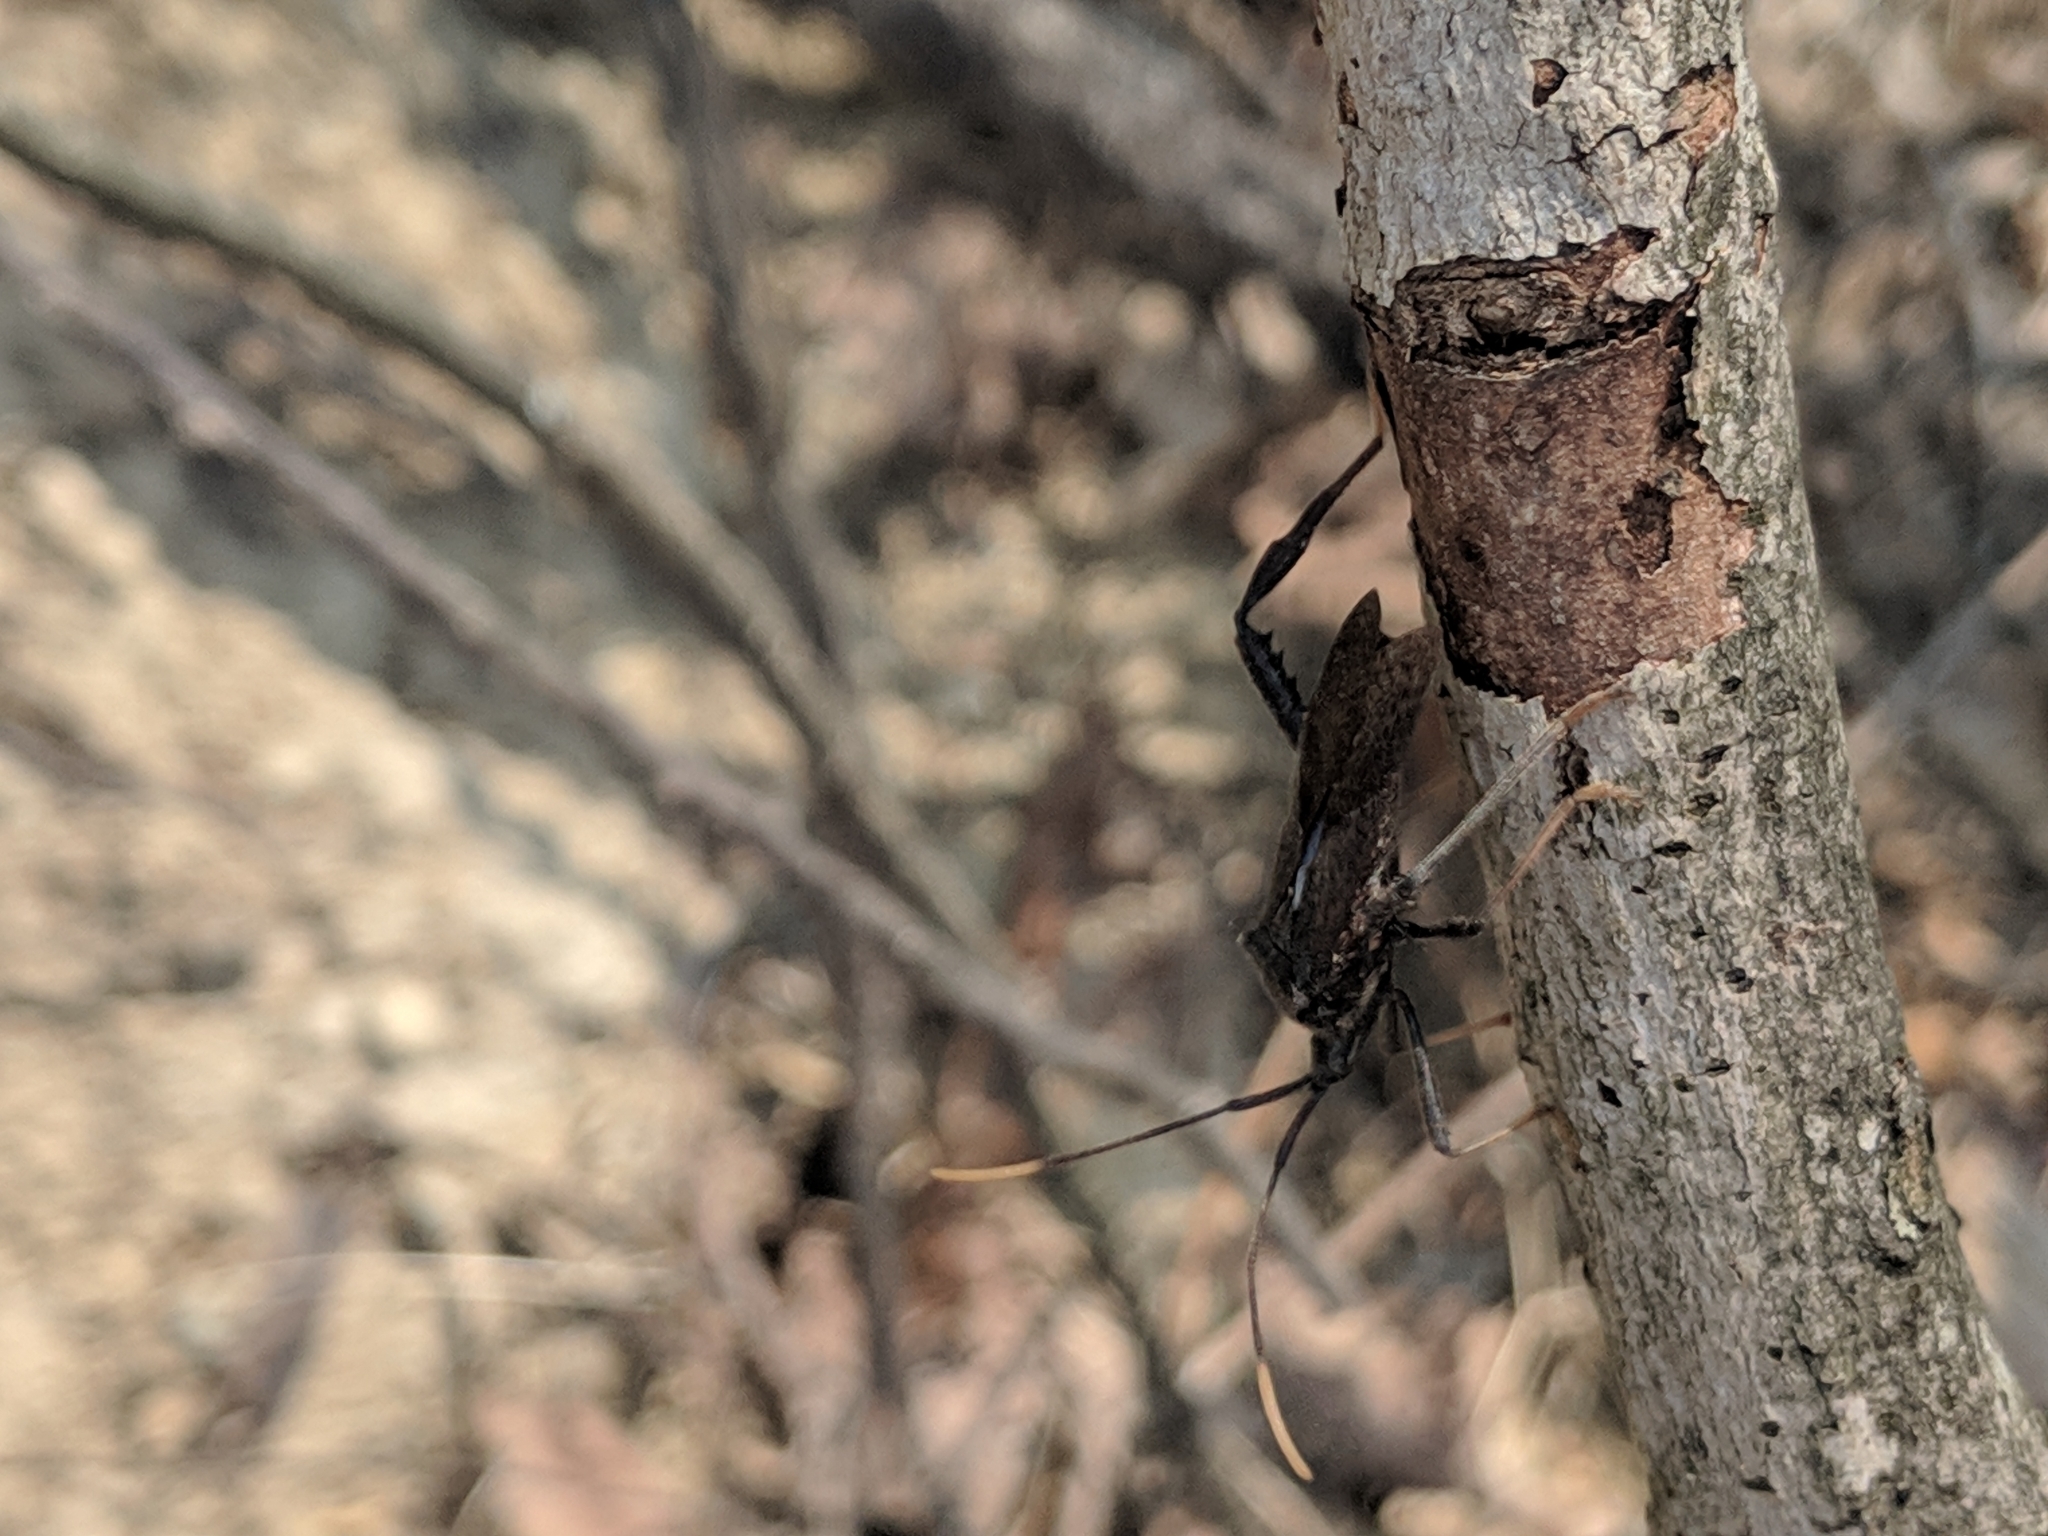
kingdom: Animalia
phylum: Arthropoda
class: Insecta
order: Hemiptera
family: Coreidae
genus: Acanthocephala
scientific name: Acanthocephala terminalis
